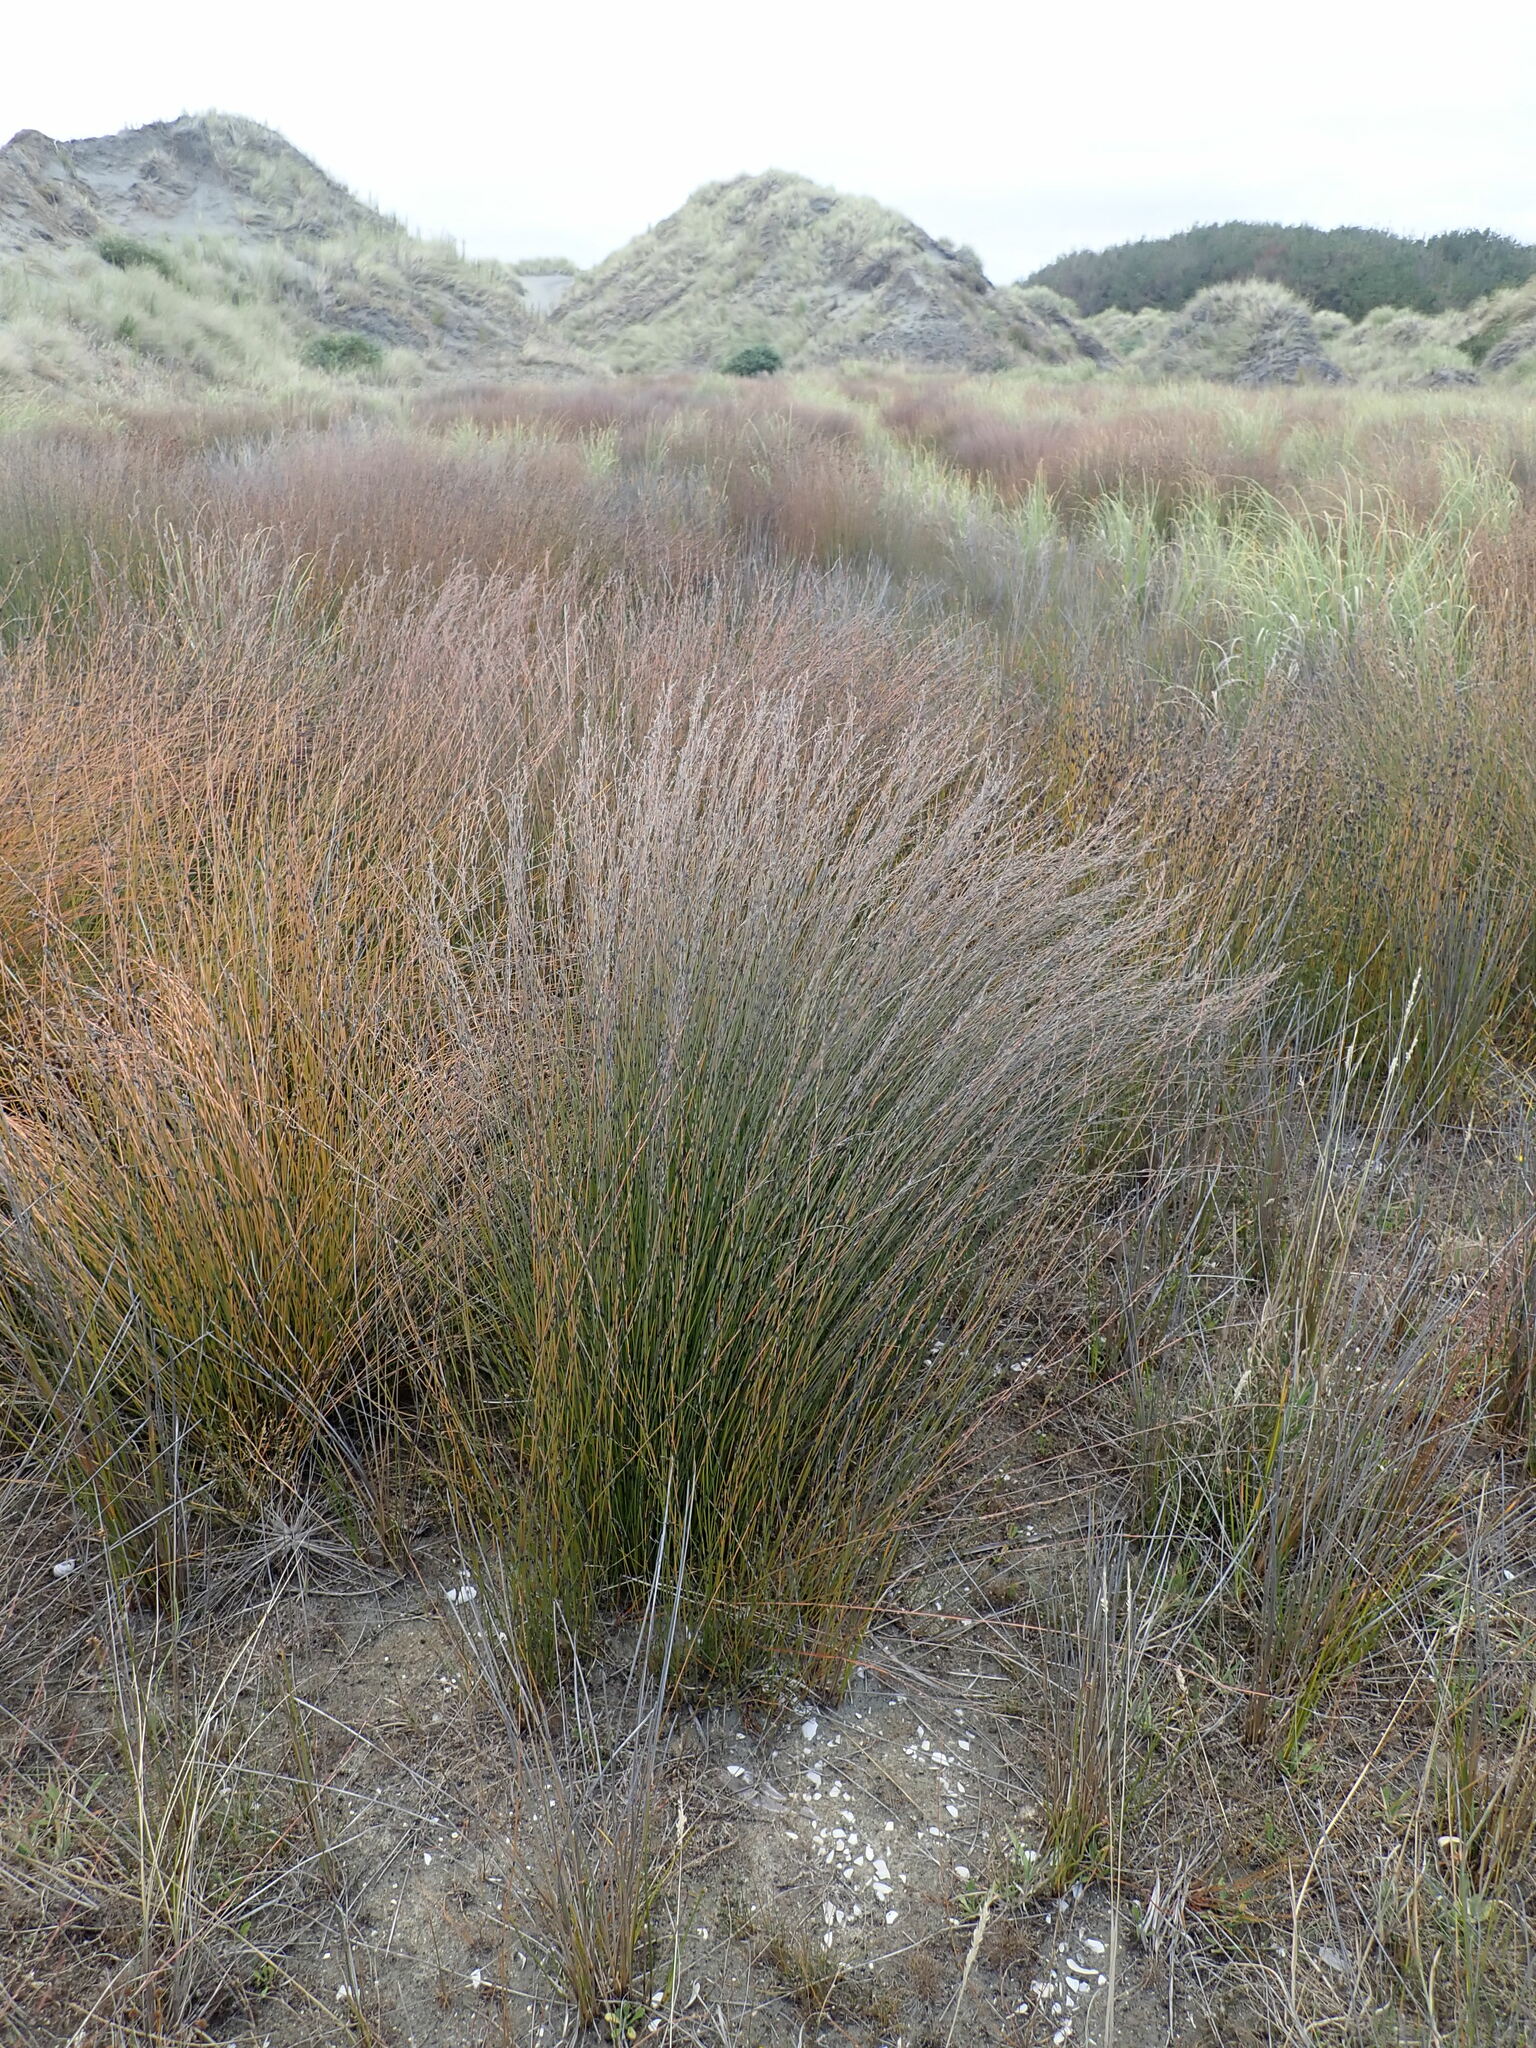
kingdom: Plantae
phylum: Tracheophyta
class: Liliopsida
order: Poales
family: Restionaceae
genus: Apodasmia
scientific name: Apodasmia similis
